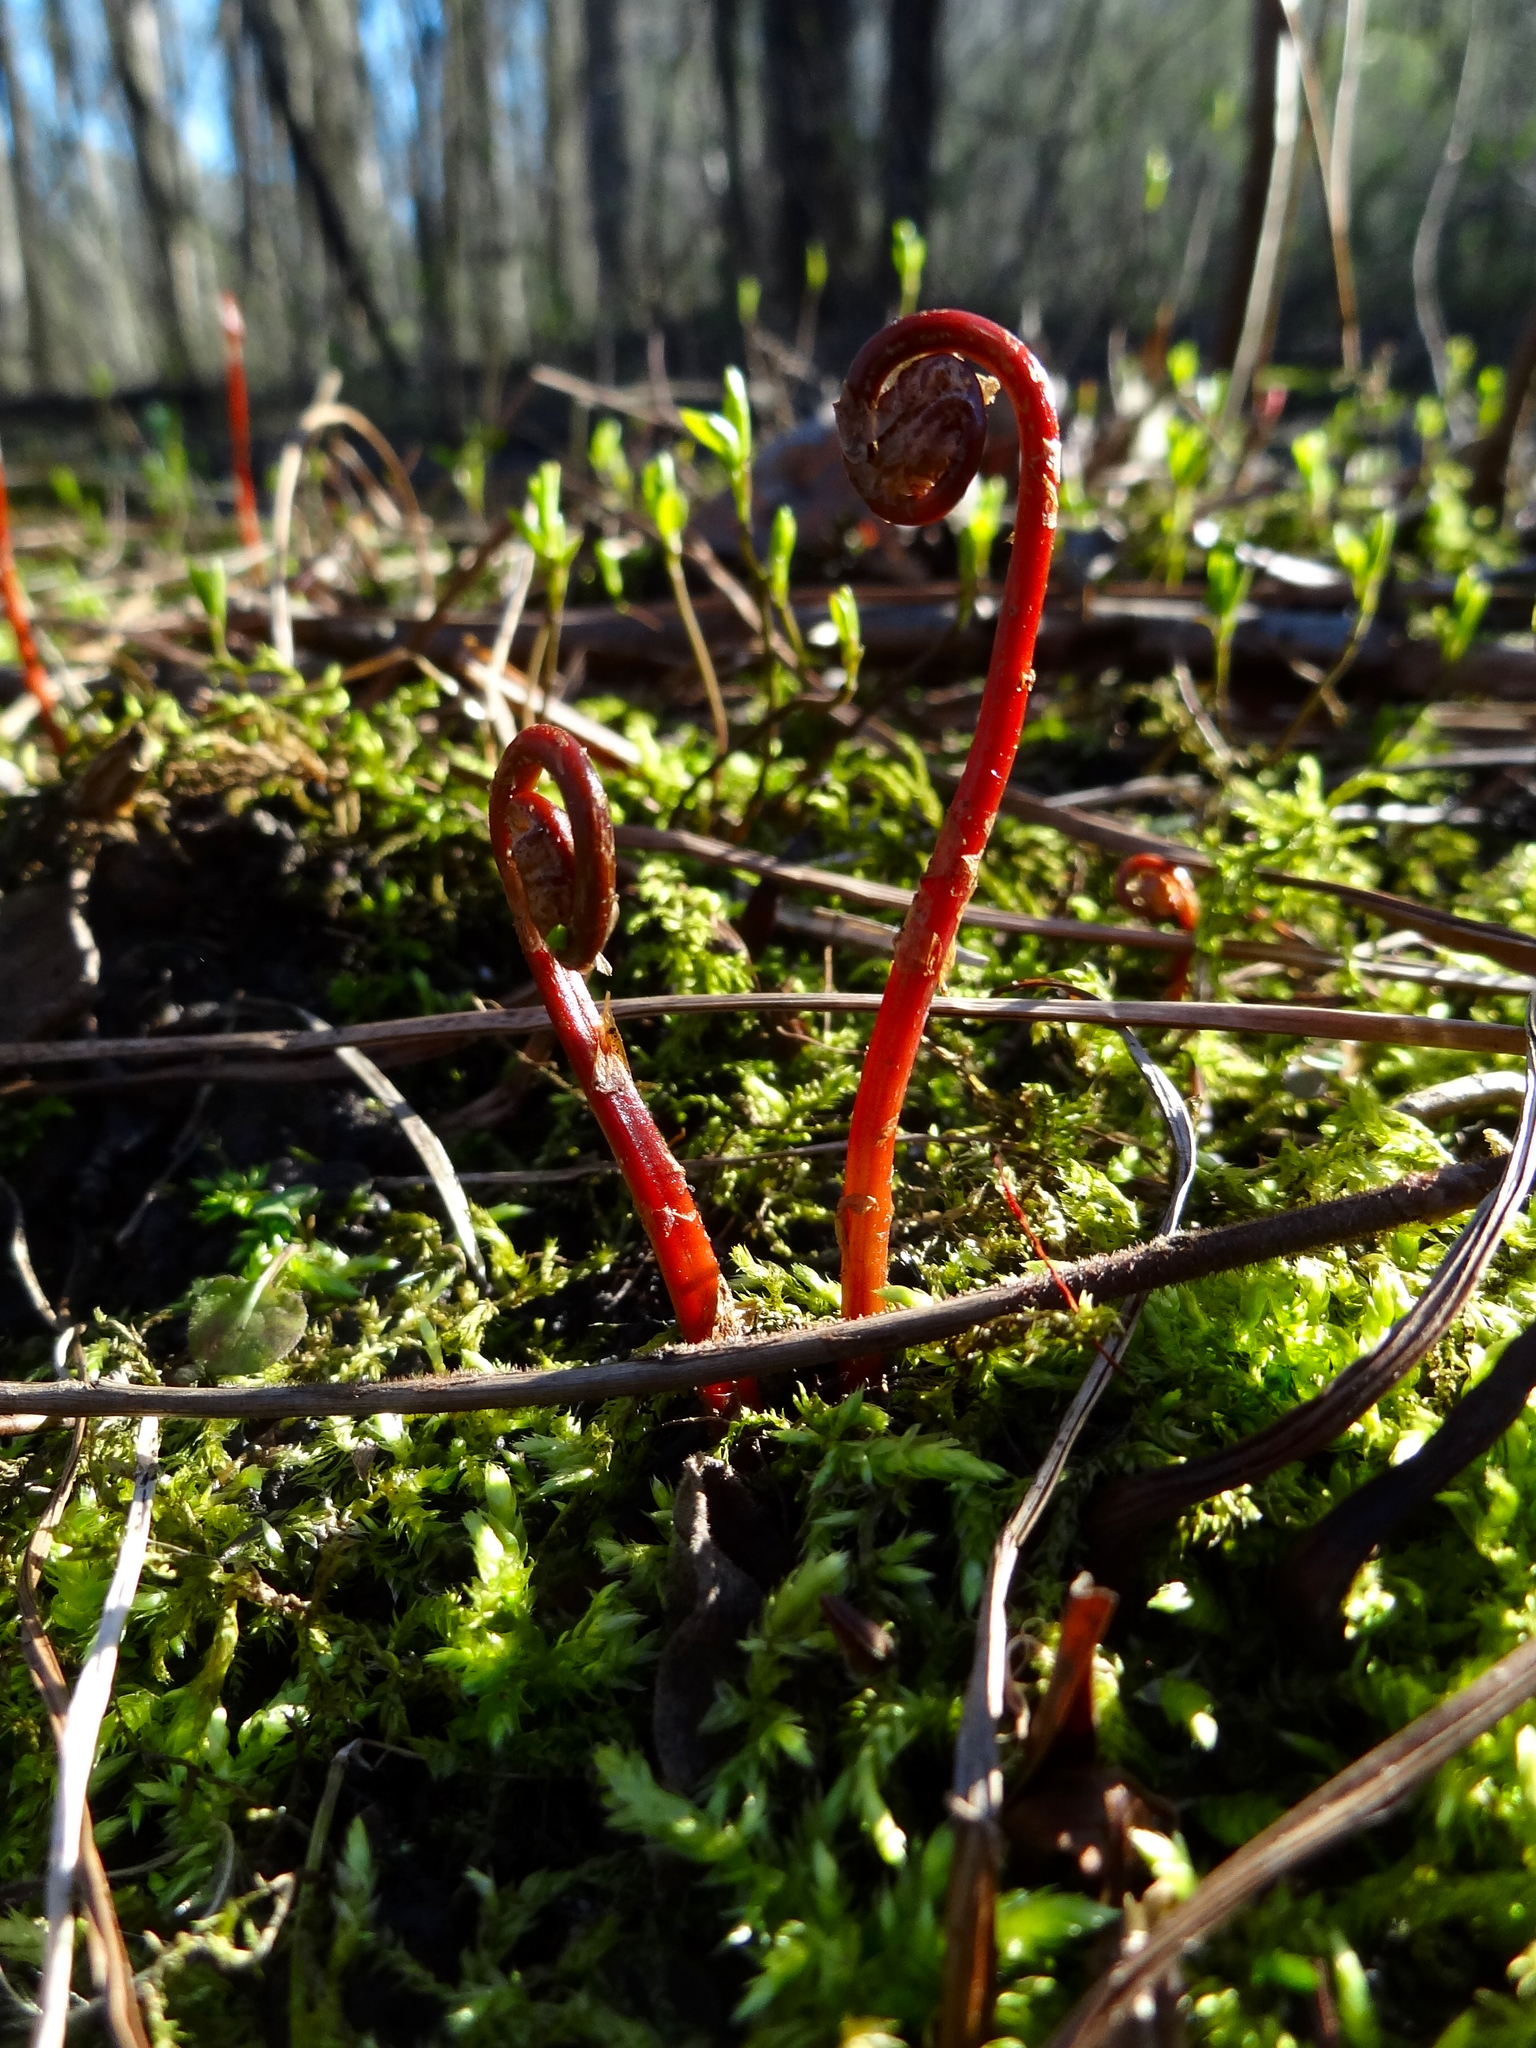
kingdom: Plantae
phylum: Tracheophyta
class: Polypodiopsida
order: Polypodiales
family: Onocleaceae
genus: Onoclea
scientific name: Onoclea sensibilis
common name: Sensitive fern
